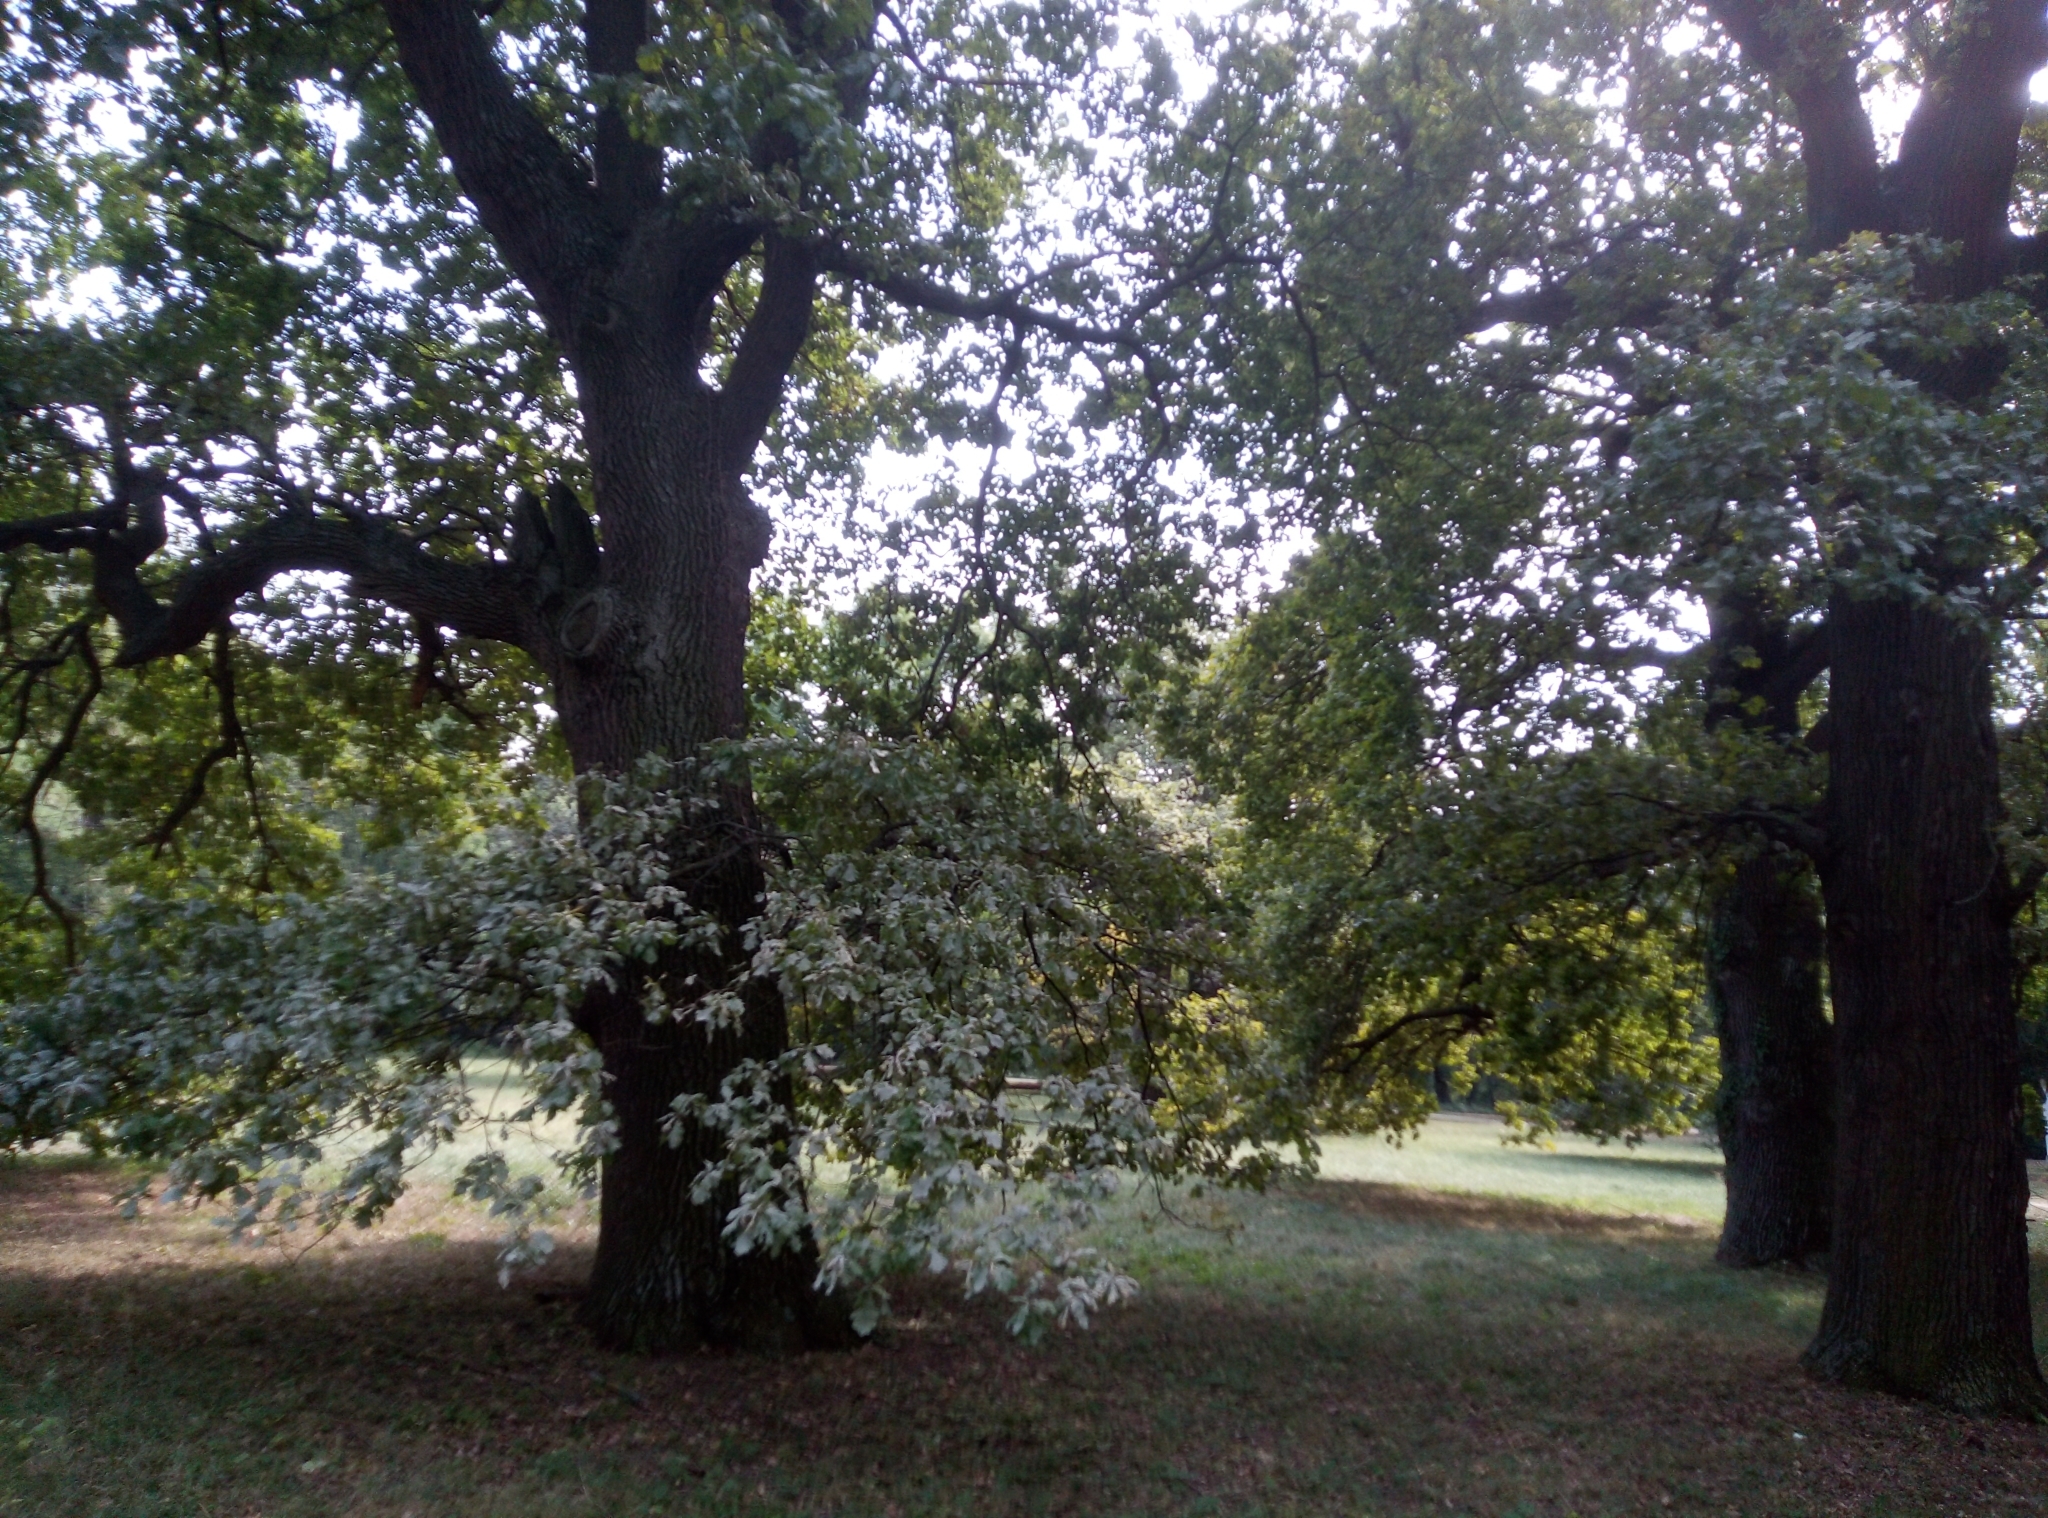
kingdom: Plantae
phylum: Tracheophyta
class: Magnoliopsida
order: Fagales
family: Fagaceae
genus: Quercus
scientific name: Quercus robur
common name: Pedunculate oak
